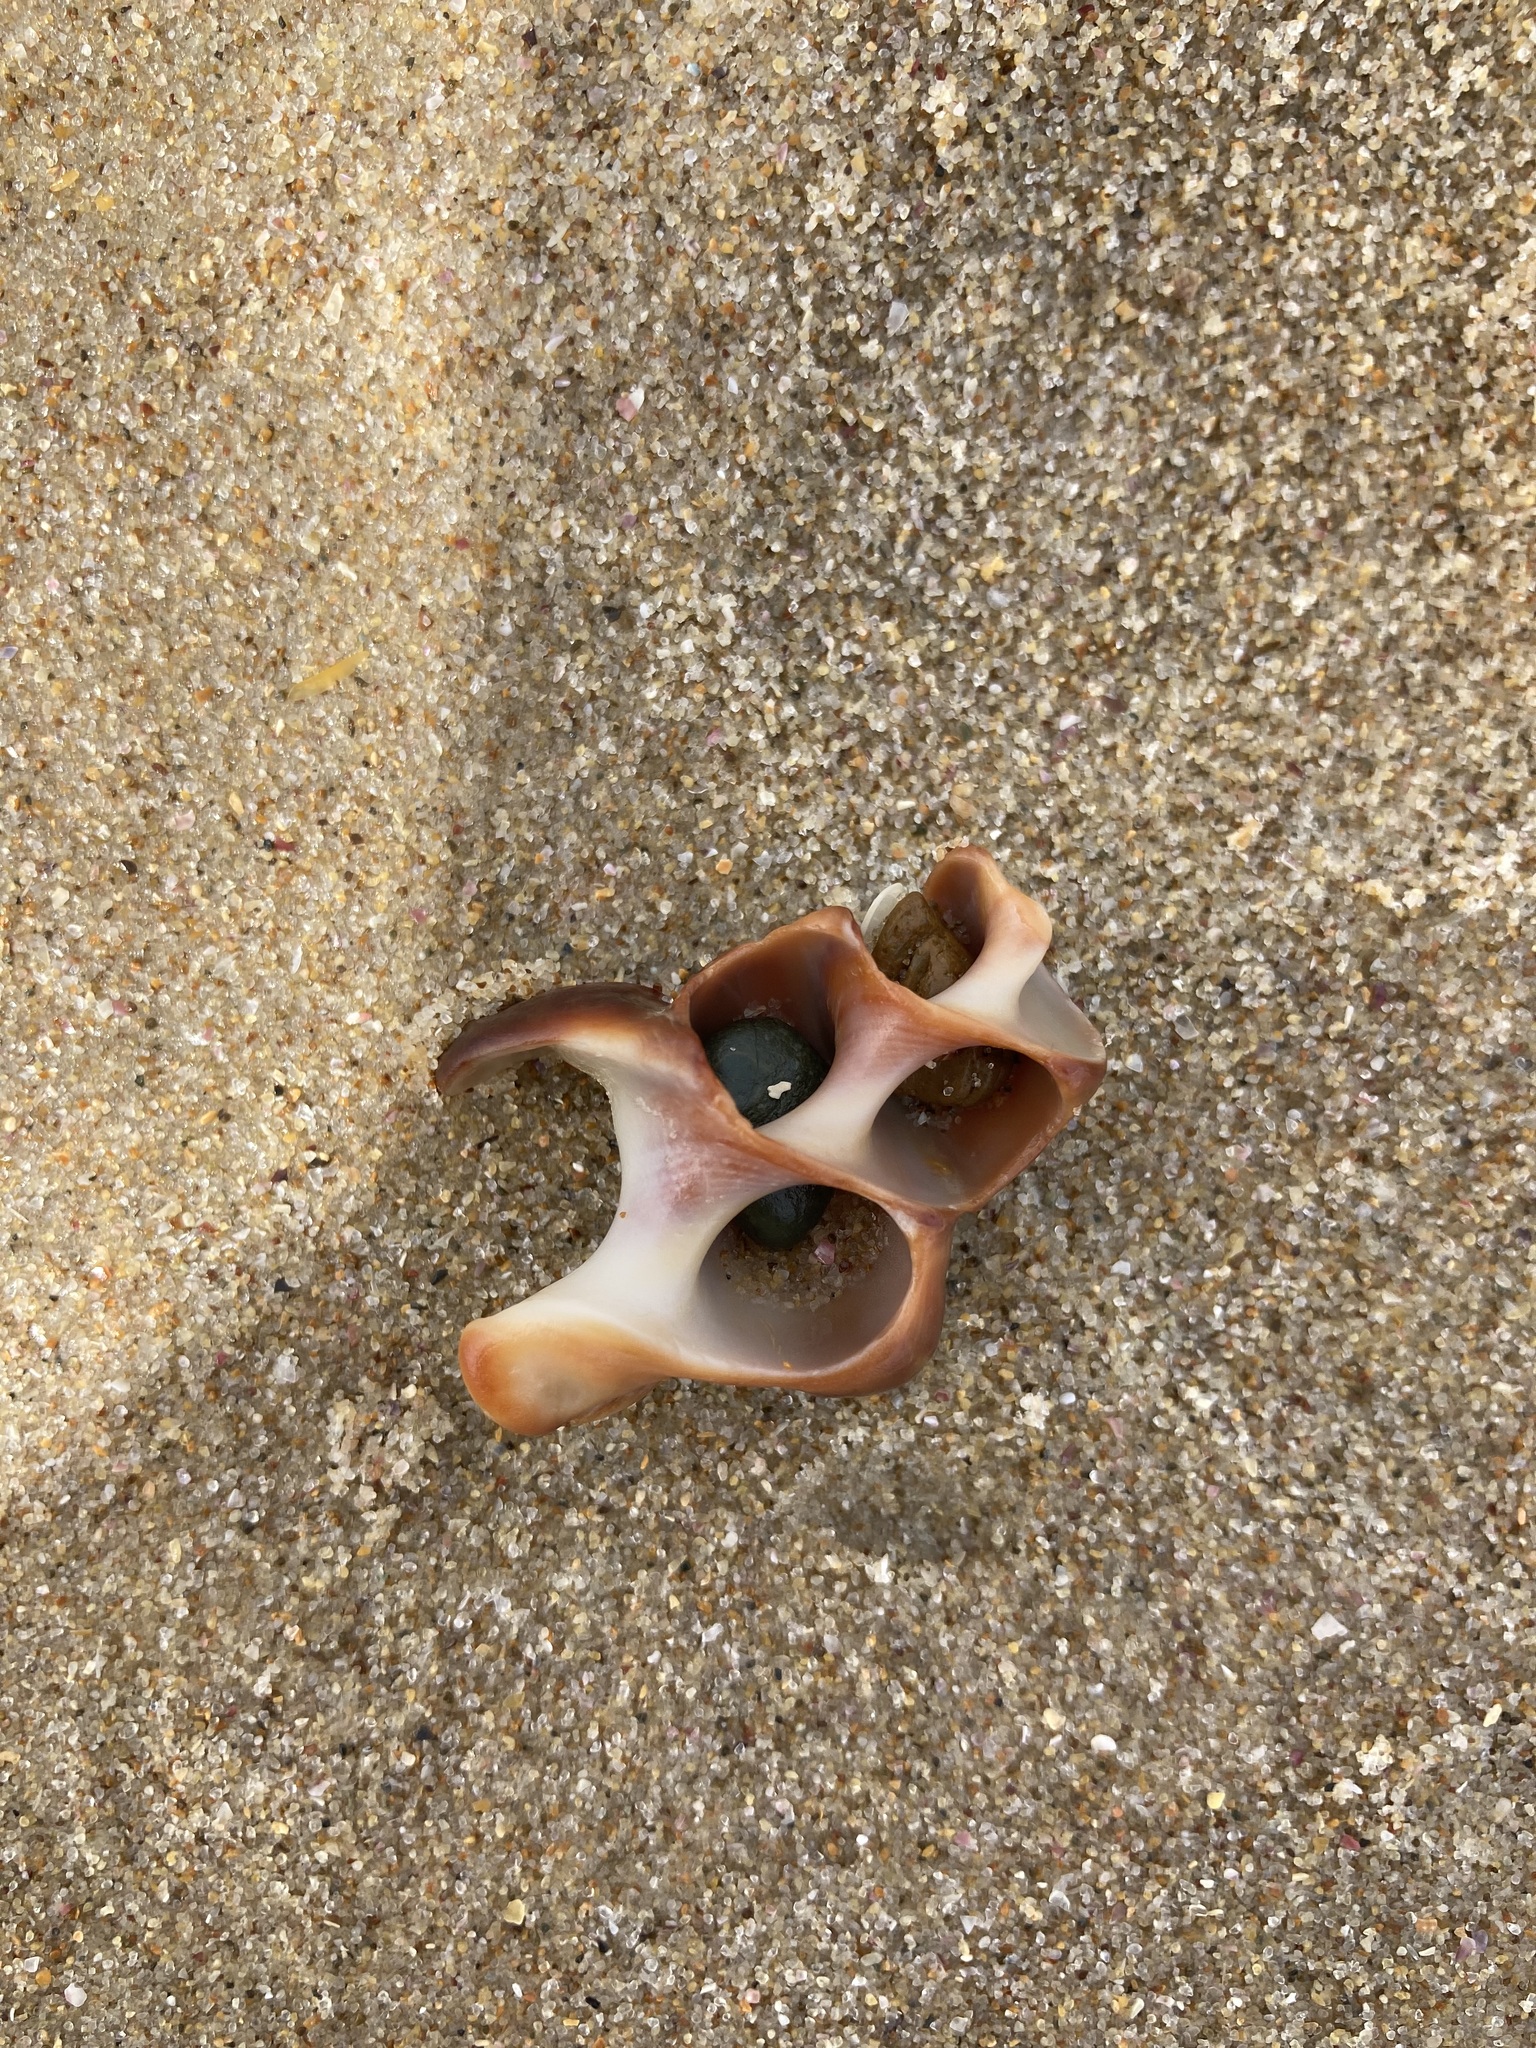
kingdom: Animalia
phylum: Mollusca
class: Gastropoda
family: Batillariidae
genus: Pyrazus
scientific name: Pyrazus ebeninus
